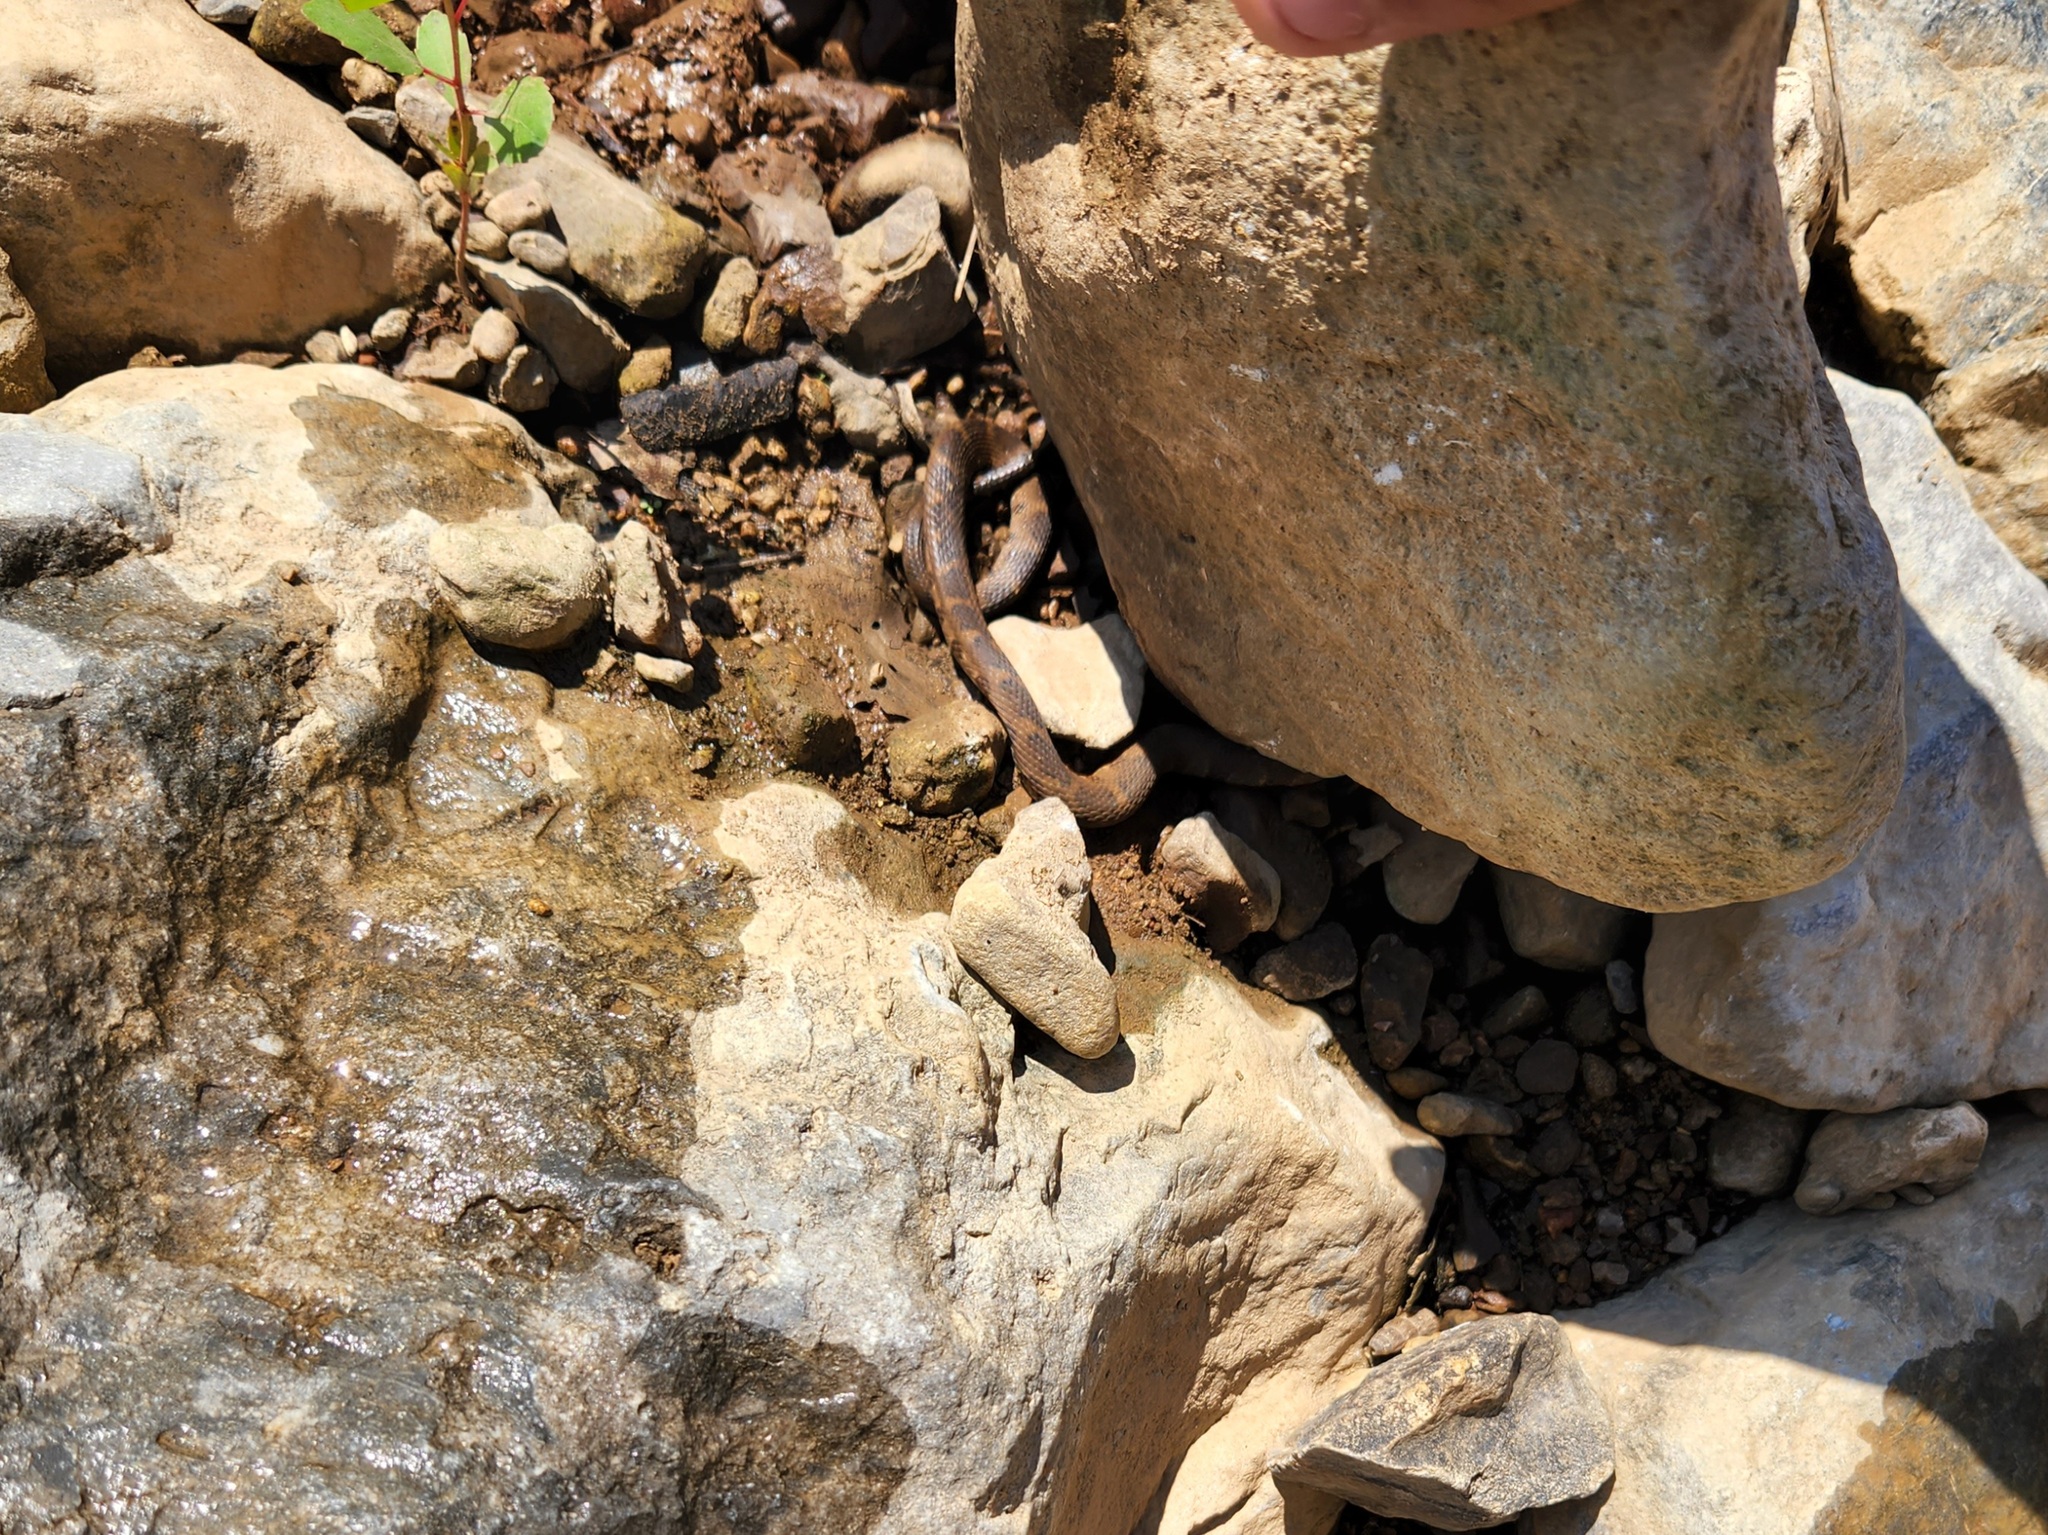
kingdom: Animalia
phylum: Chordata
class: Squamata
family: Colubridae
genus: Nerodia
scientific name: Nerodia sipedon
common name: Northern water snake
